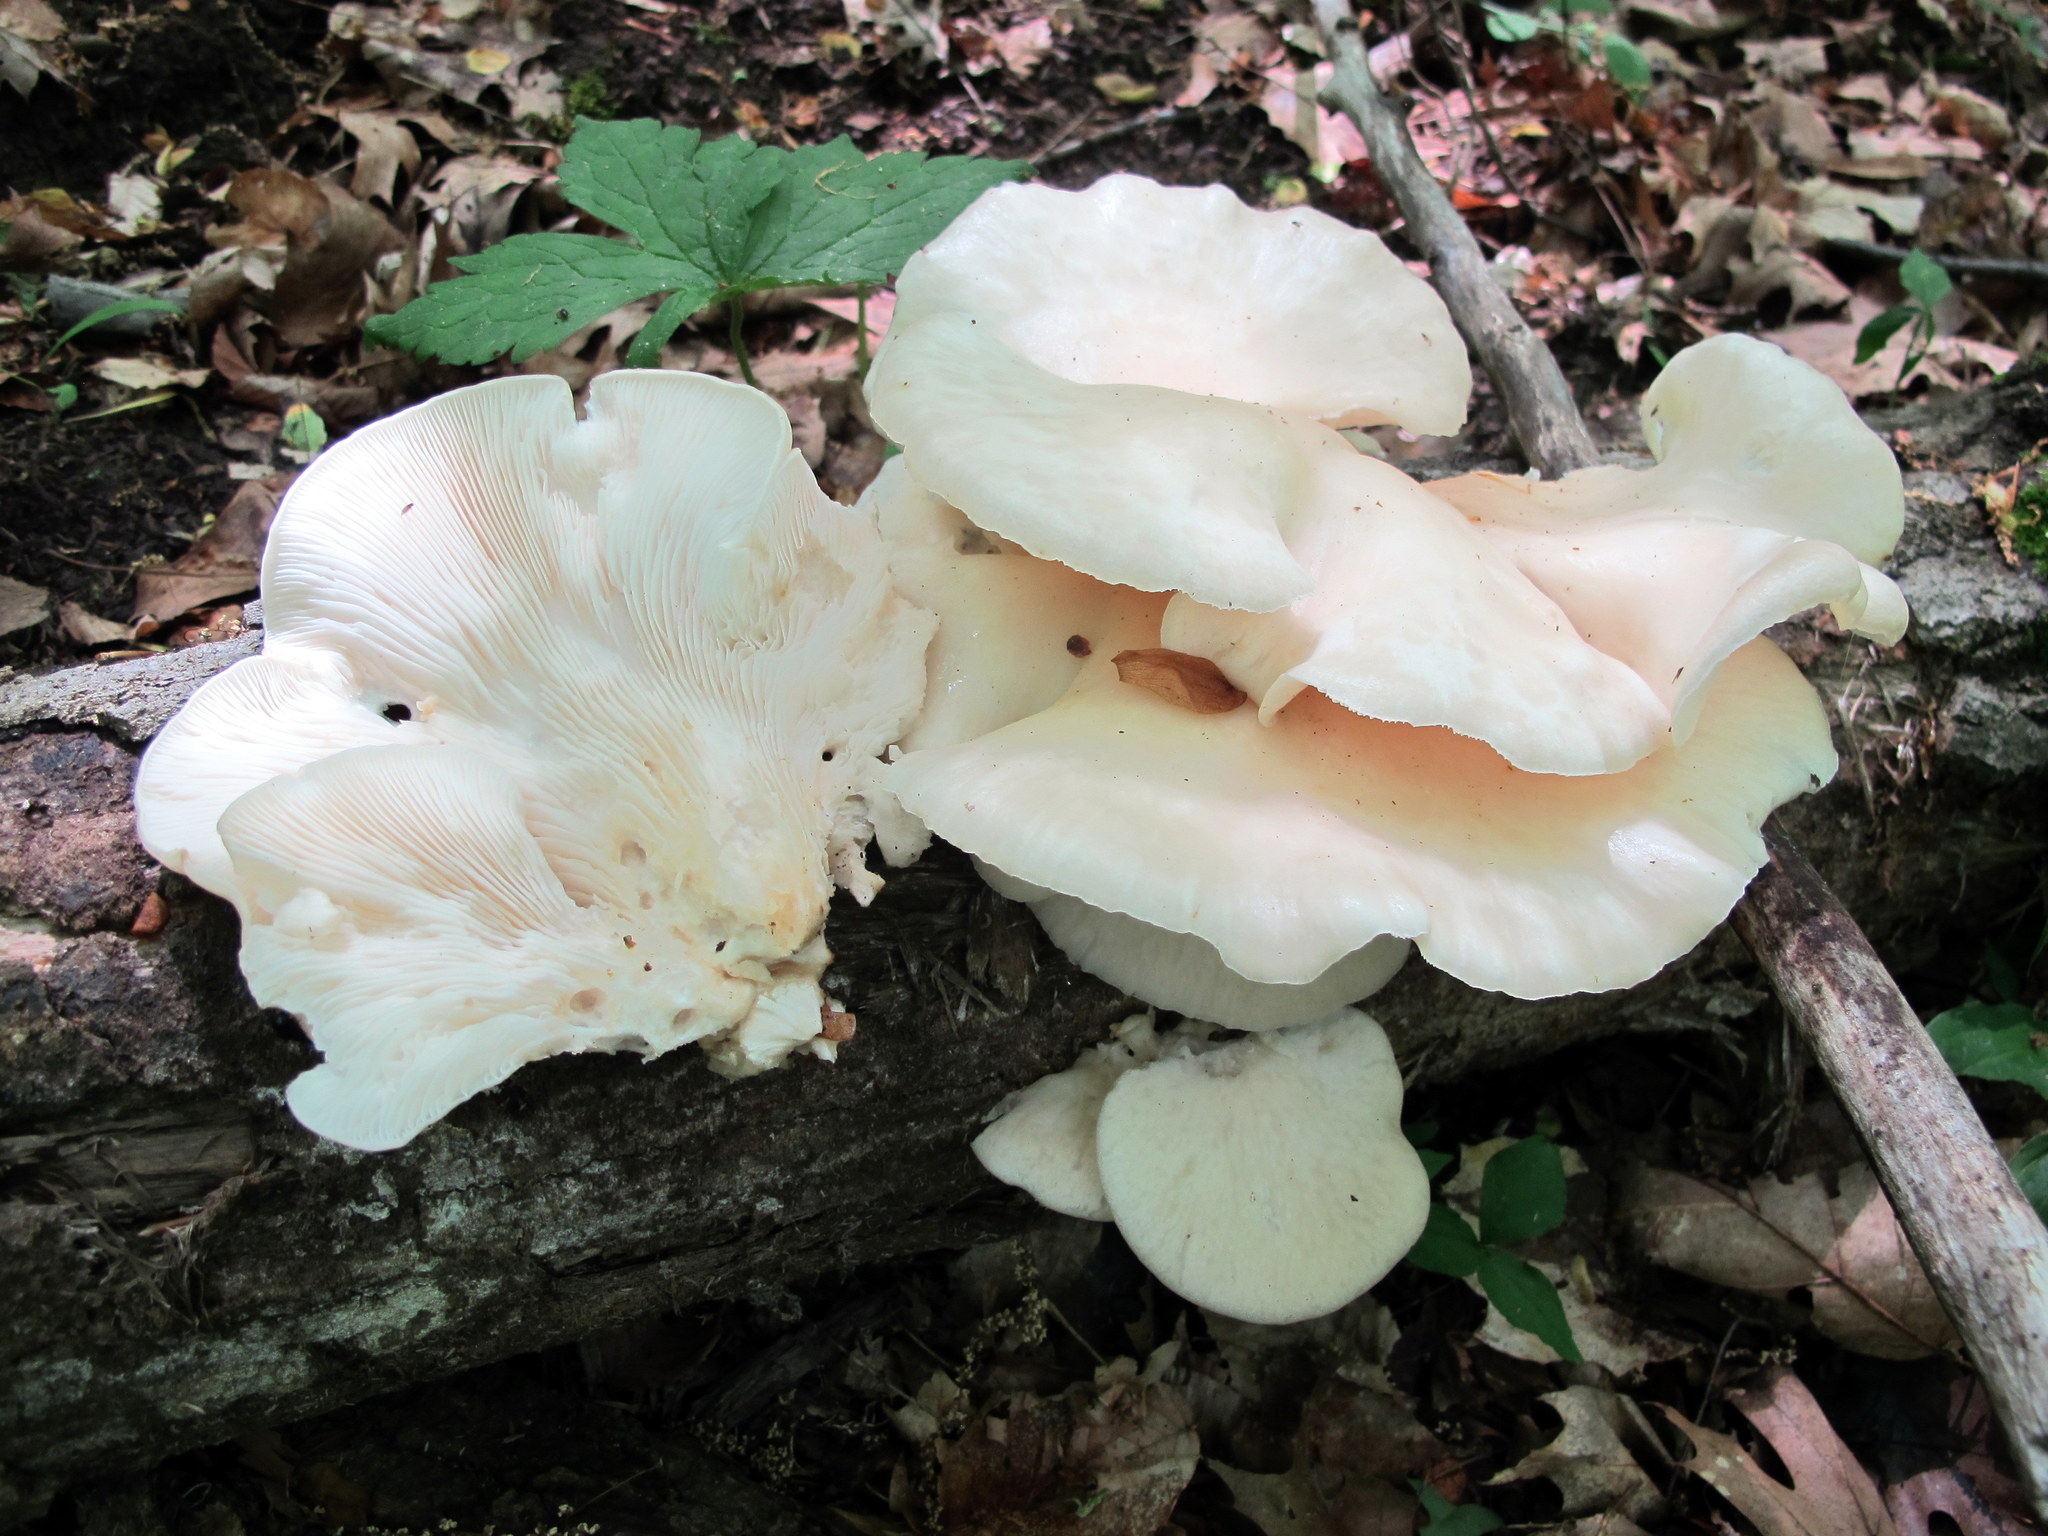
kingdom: Fungi
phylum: Basidiomycota
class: Agaricomycetes
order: Agaricales
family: Pleurotaceae
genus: Pleurotus
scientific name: Pleurotus populinus
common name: Aspen oyster mushroom
